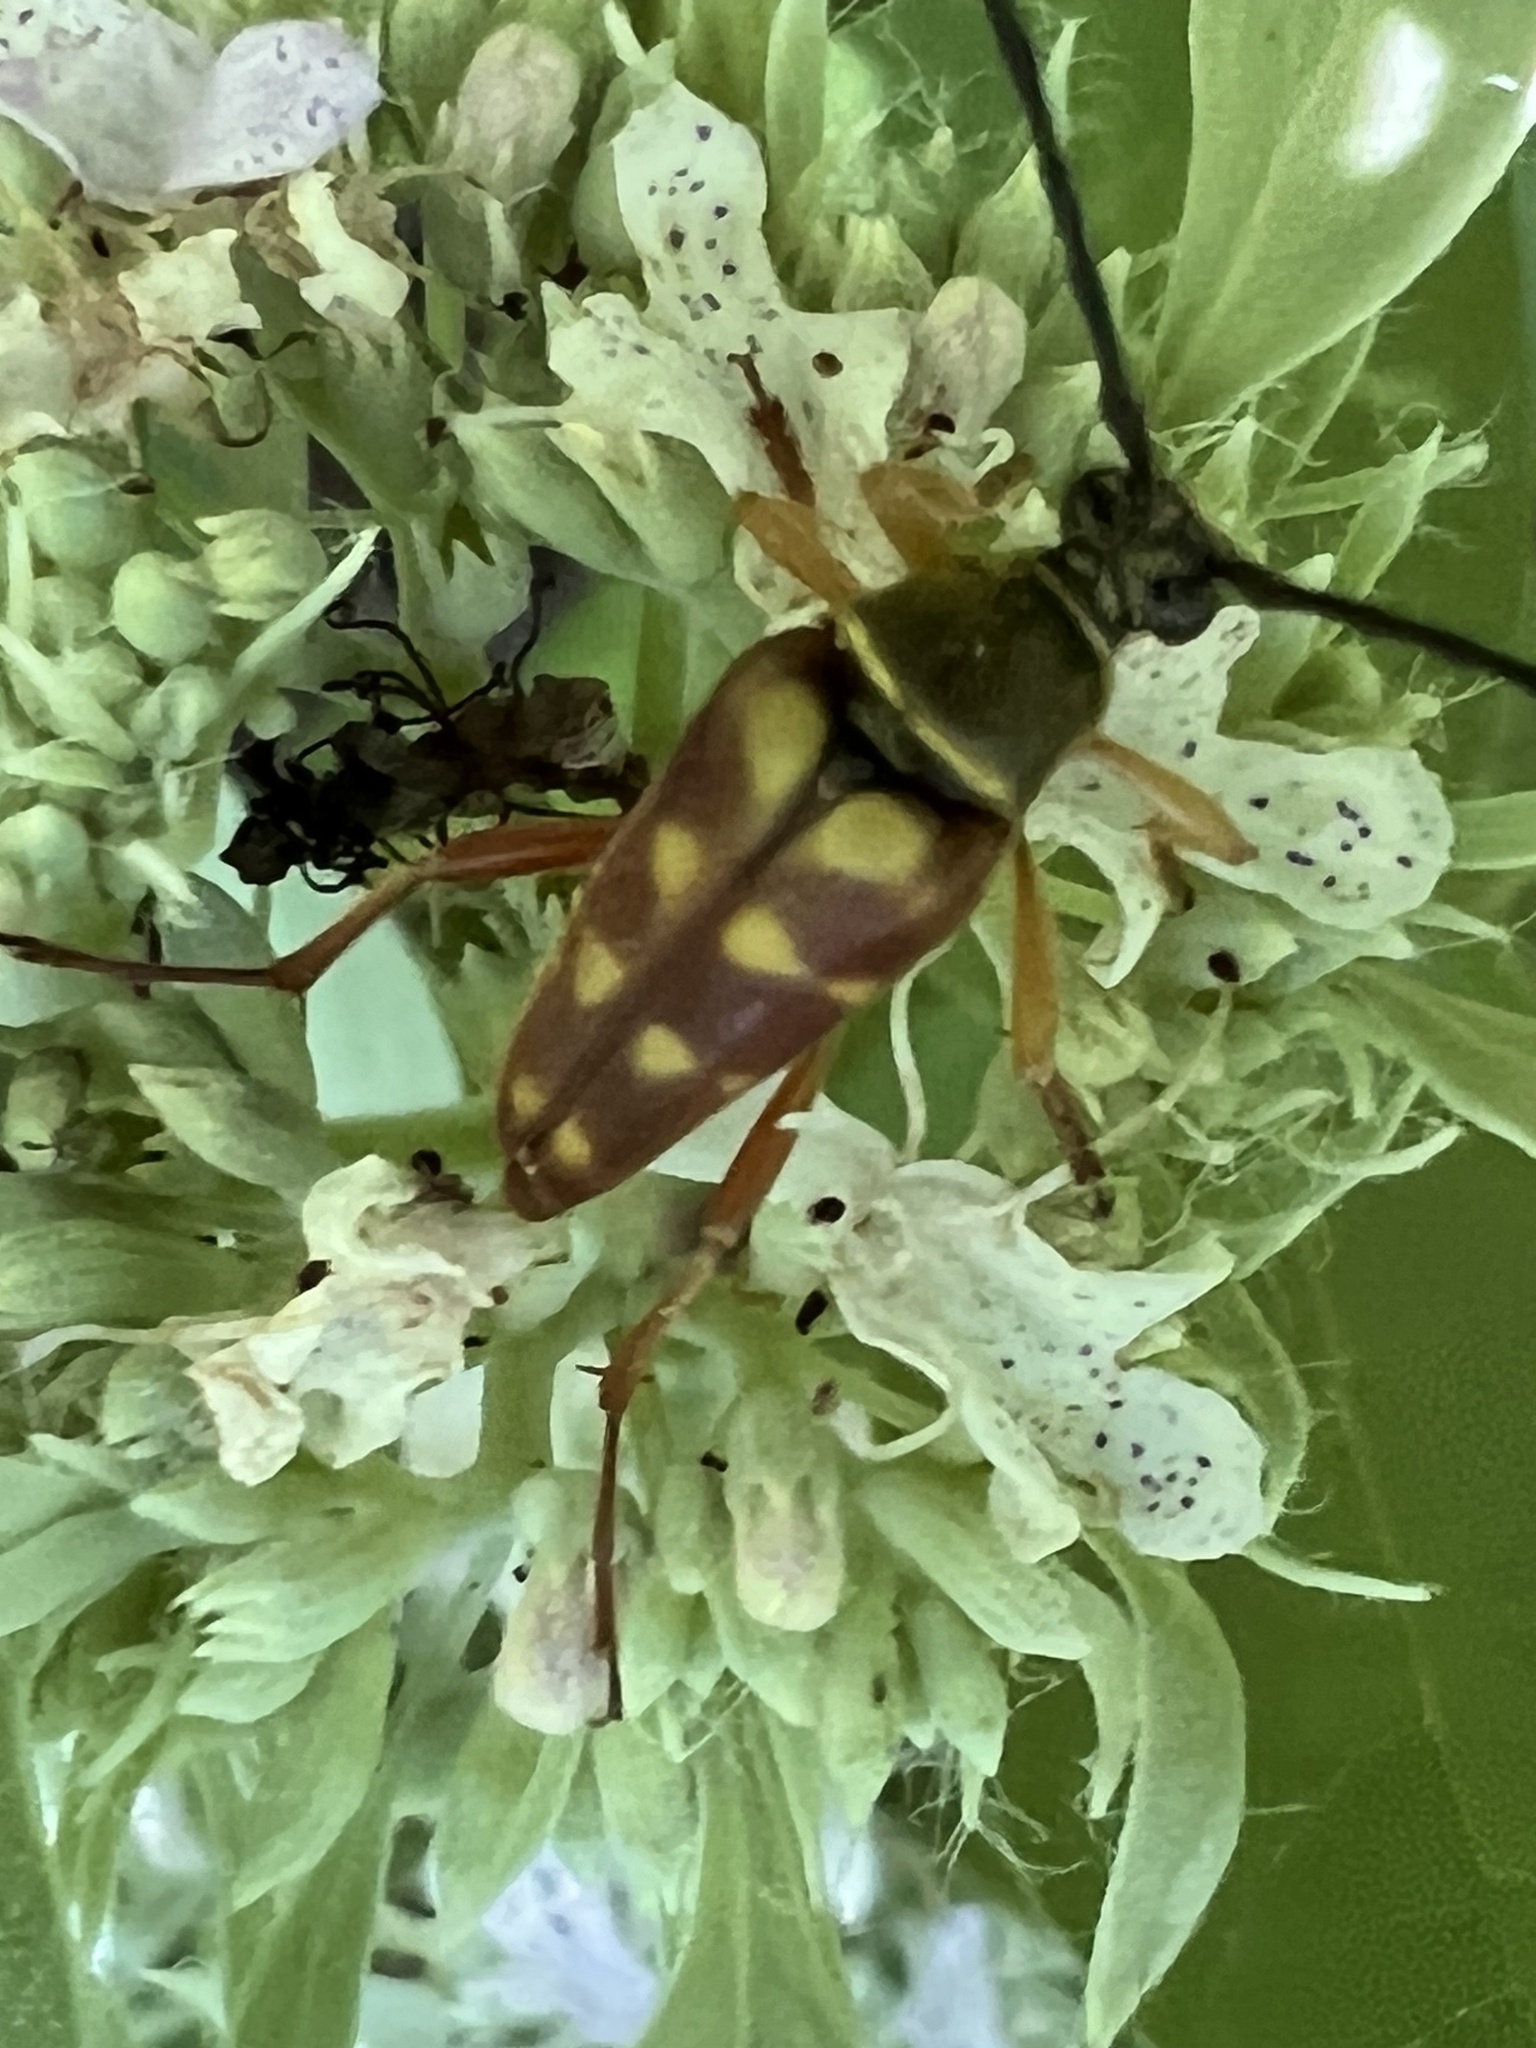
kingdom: Animalia
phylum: Arthropoda
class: Insecta
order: Coleoptera
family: Cerambycidae
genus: Typocerus
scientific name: Typocerus velutinus
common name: Banded longhorn beetle
